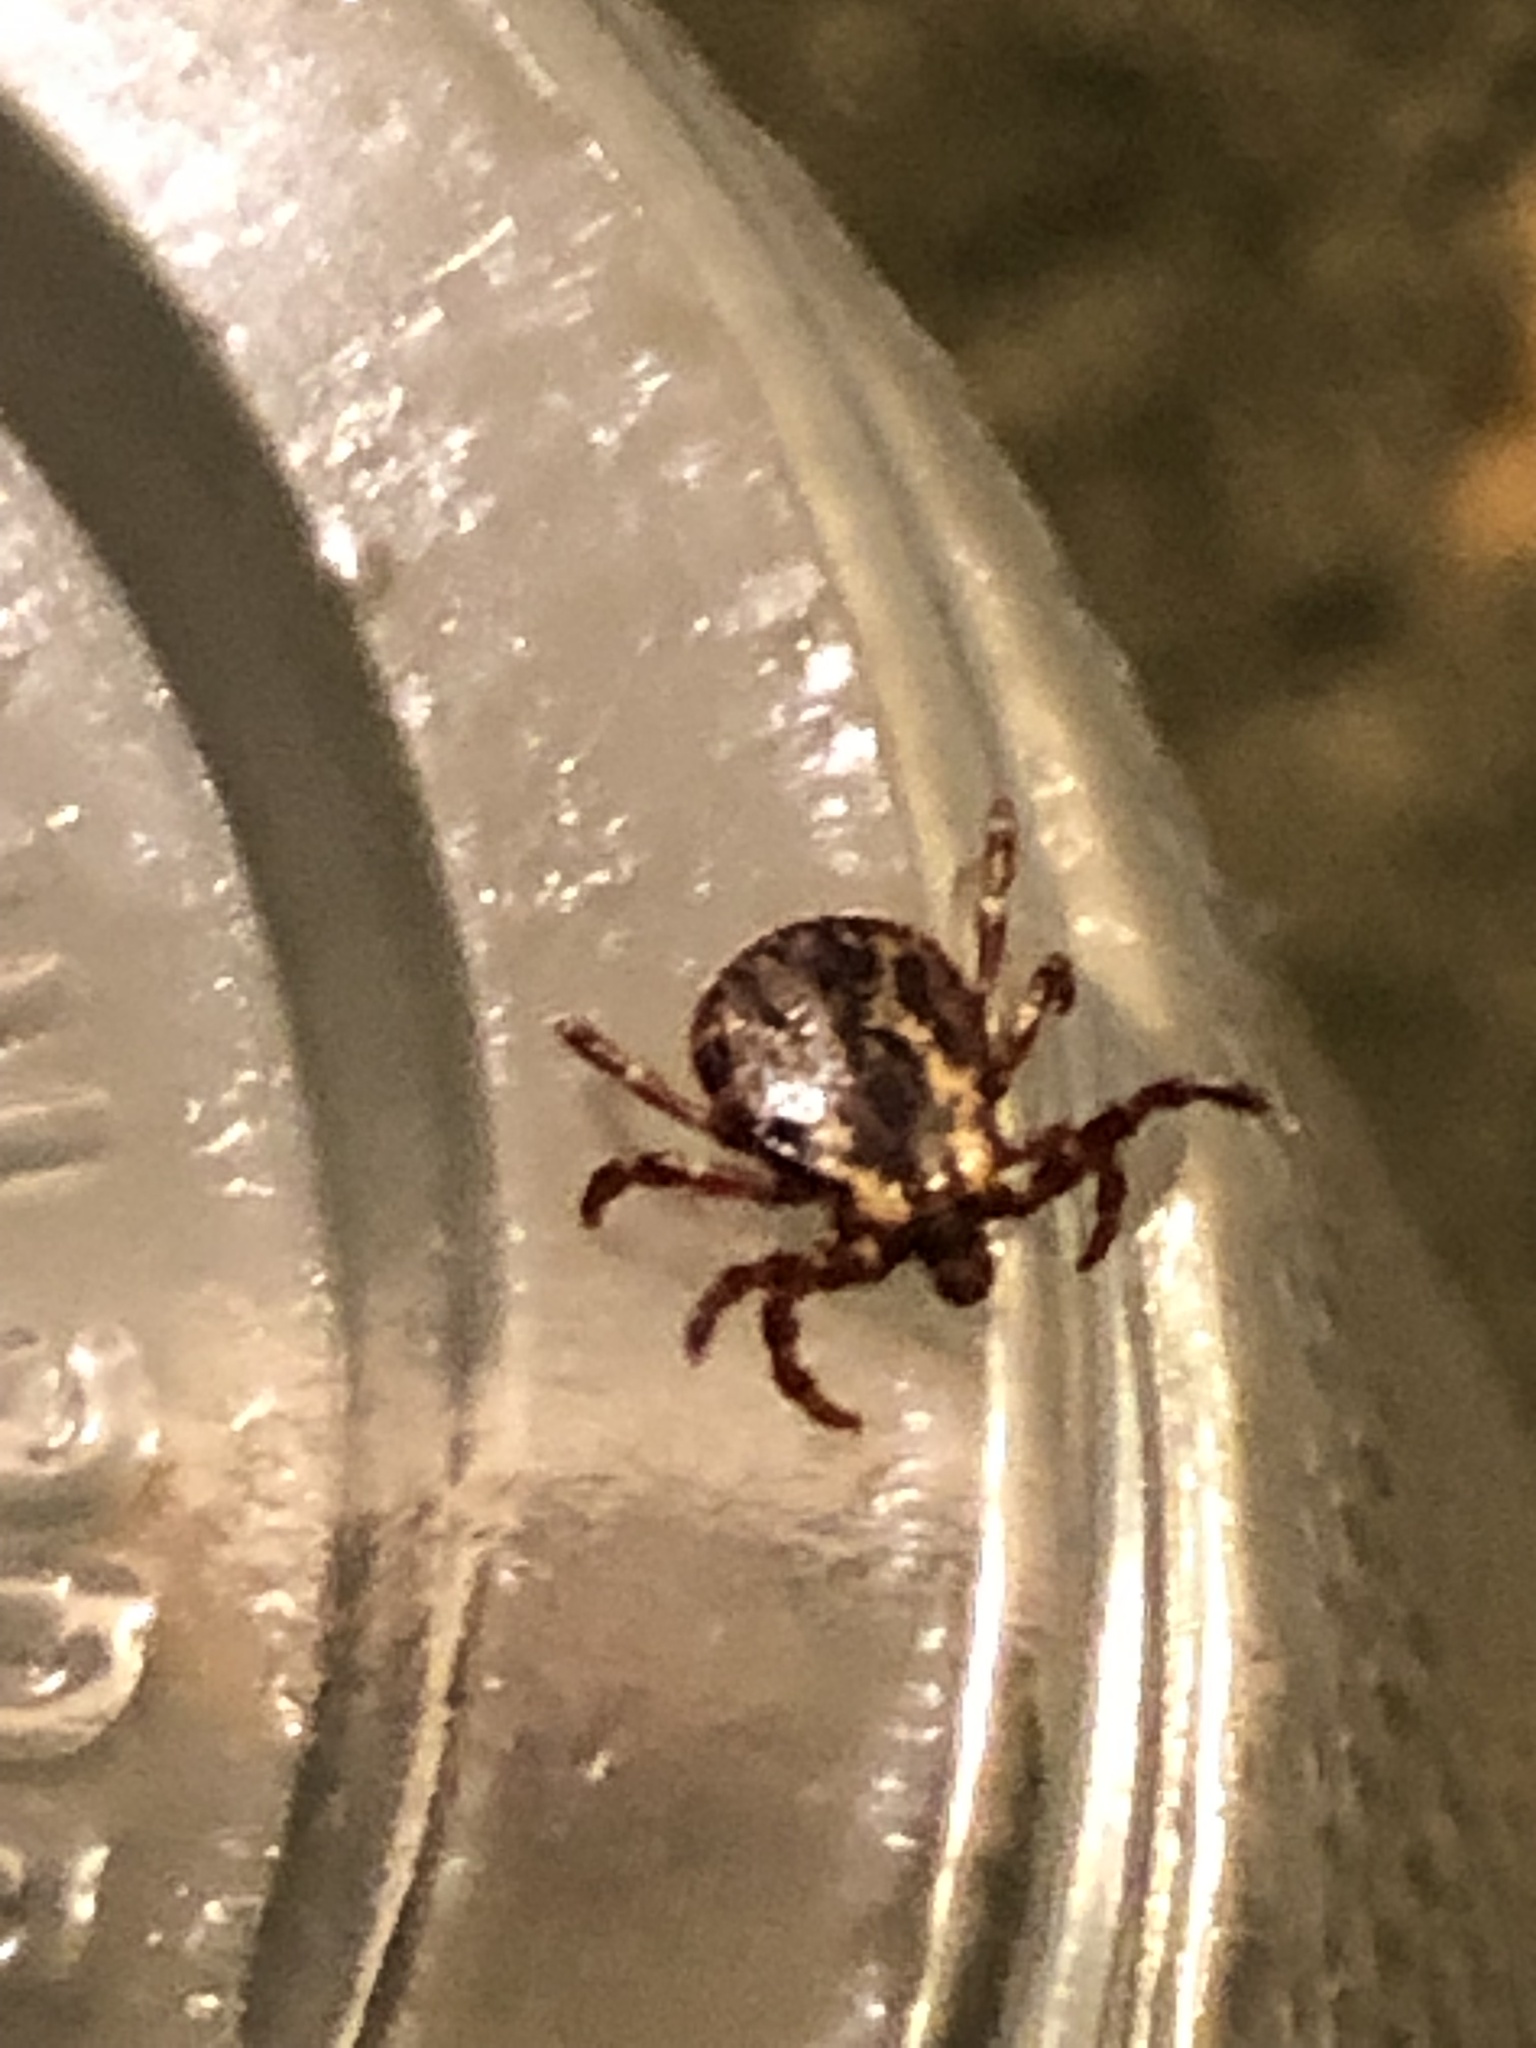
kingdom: Animalia
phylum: Arthropoda
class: Arachnida
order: Ixodida
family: Ixodidae
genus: Dermacentor
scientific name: Dermacentor variabilis
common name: American dog tick
